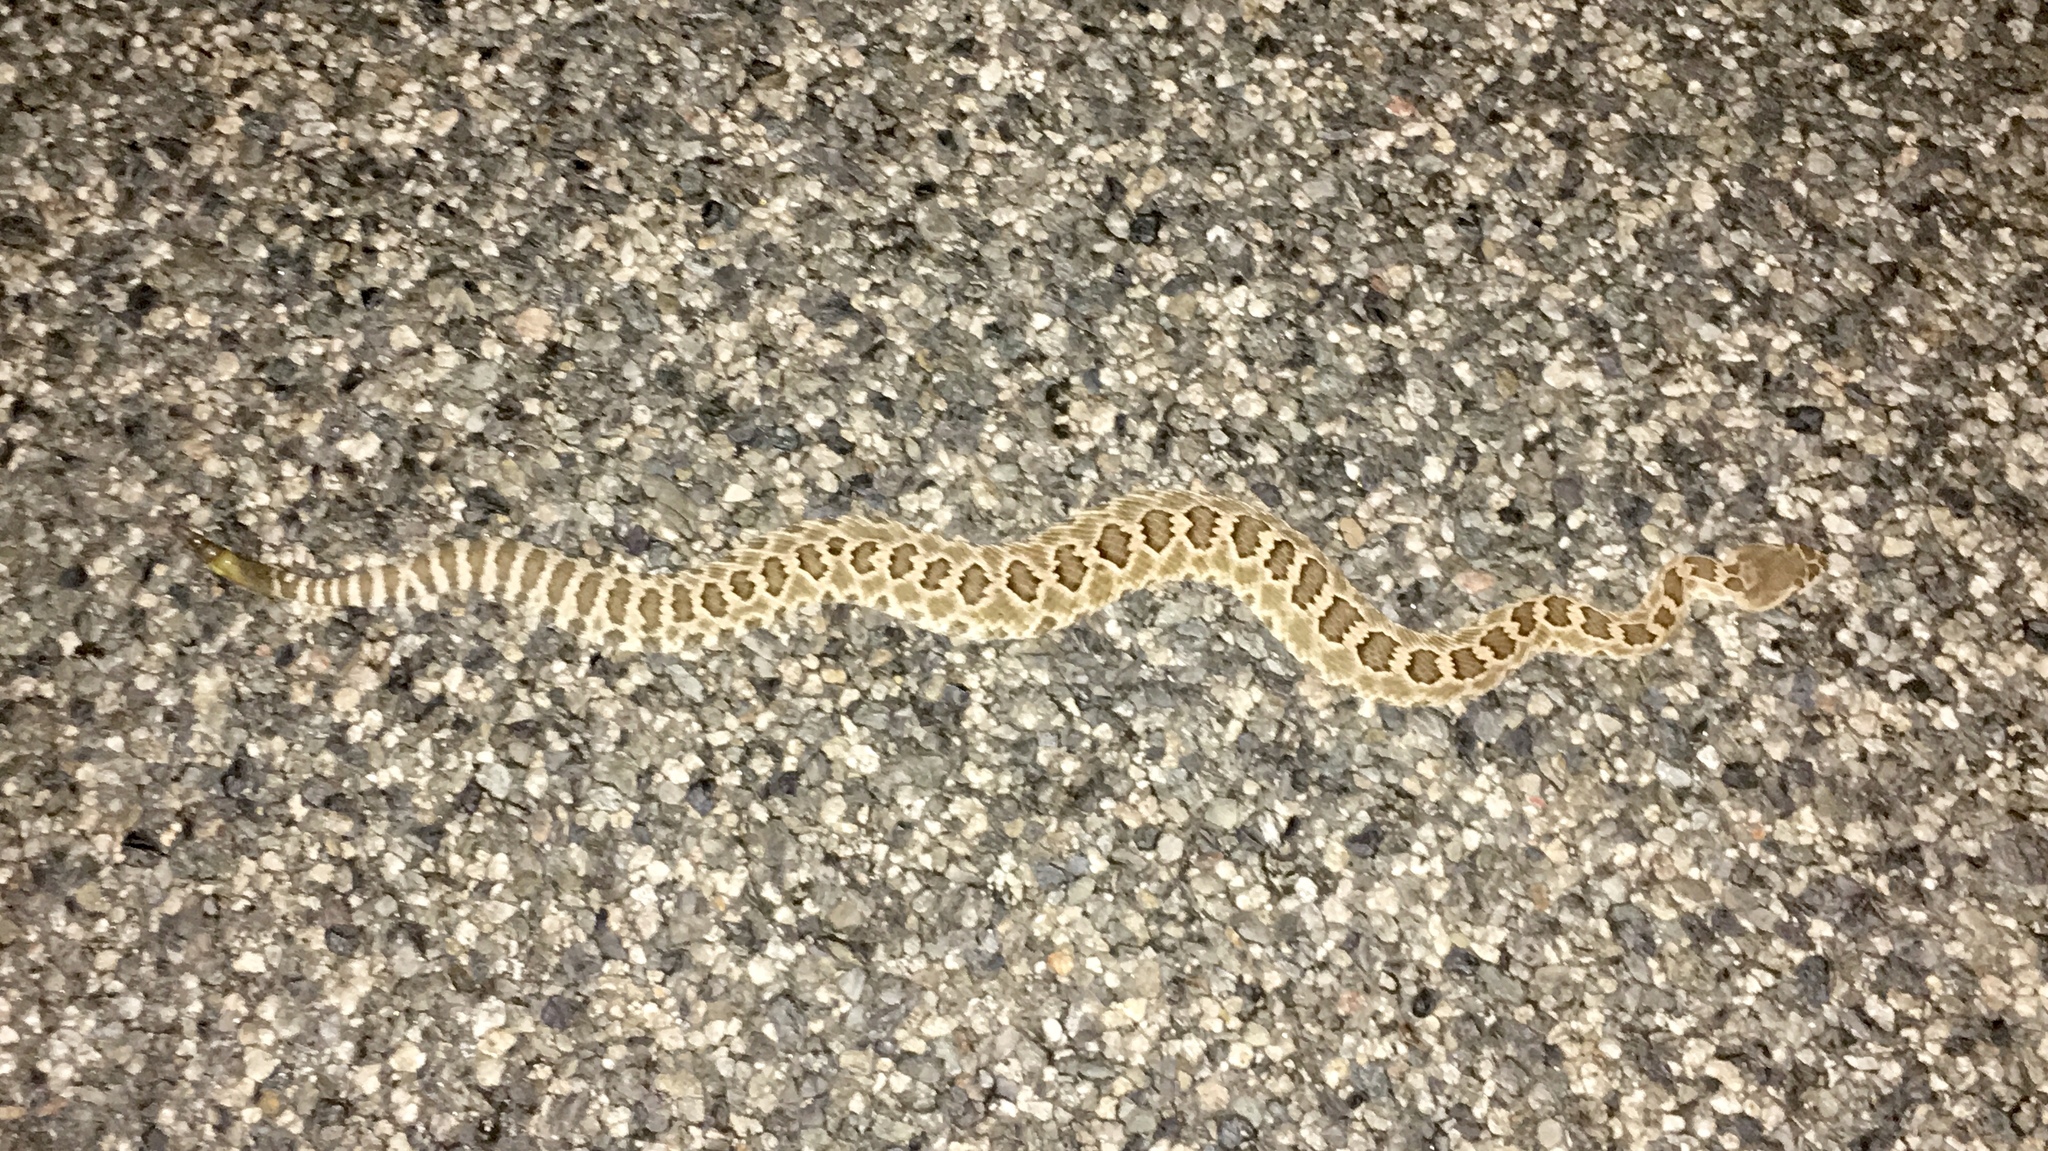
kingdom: Animalia
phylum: Chordata
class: Squamata
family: Viperidae
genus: Crotalus
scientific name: Crotalus oreganus
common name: Abyssus
